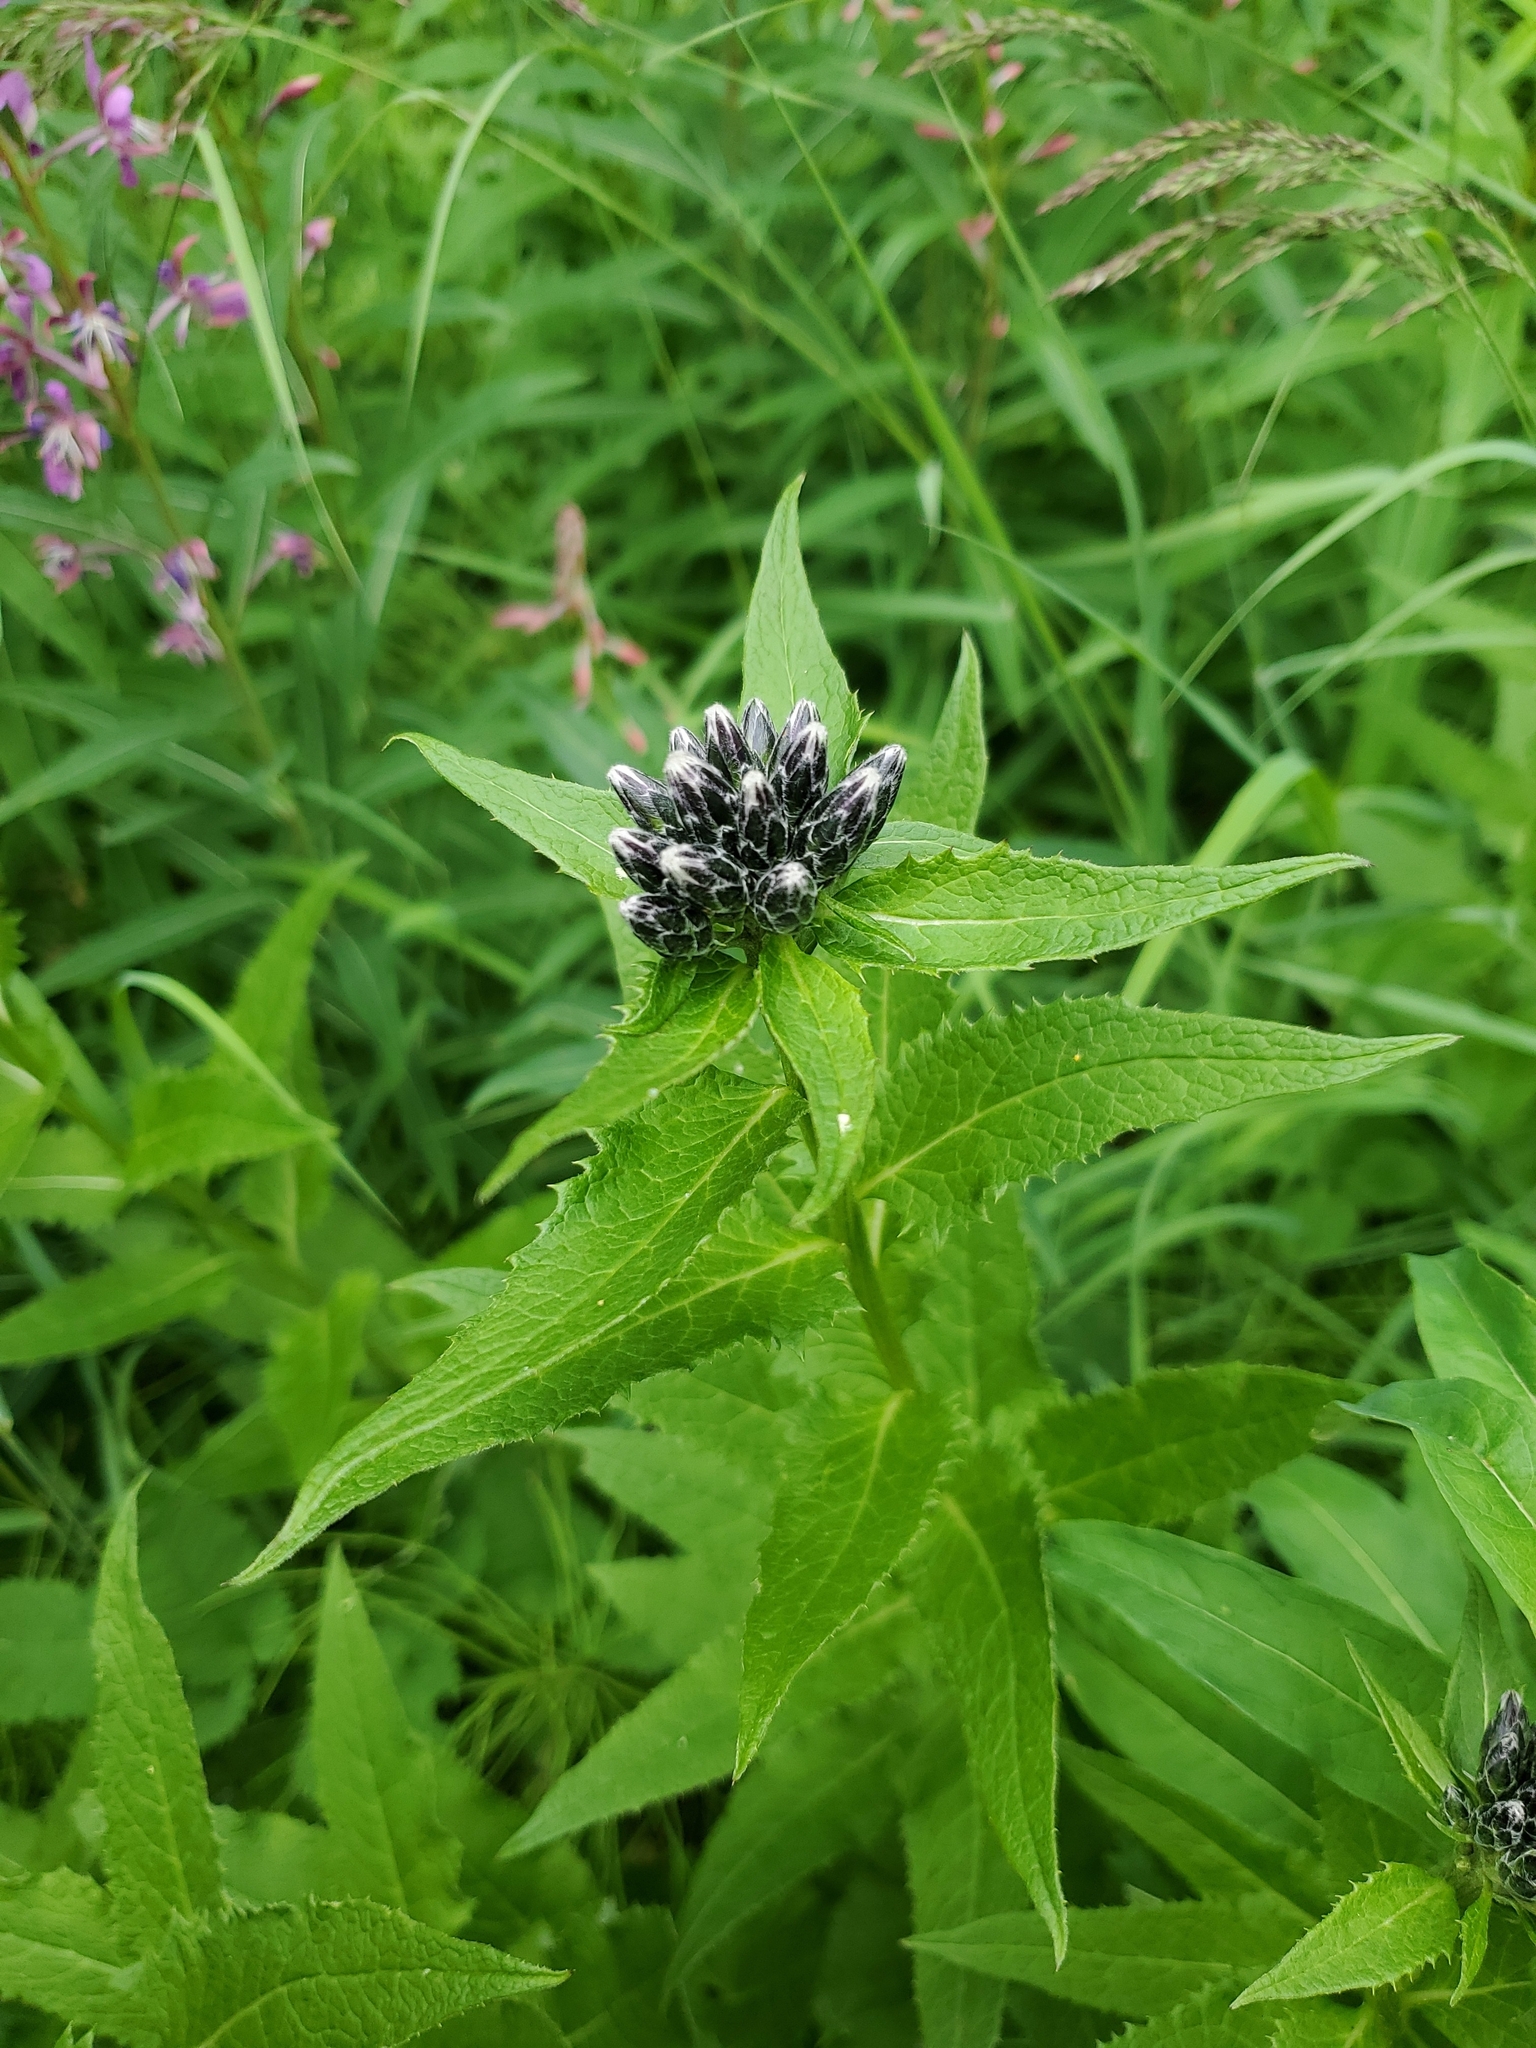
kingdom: Plantae
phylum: Tracheophyta
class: Magnoliopsida
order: Asterales
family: Asteraceae
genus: Saussurea
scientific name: Saussurea americana
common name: American saw-wort
